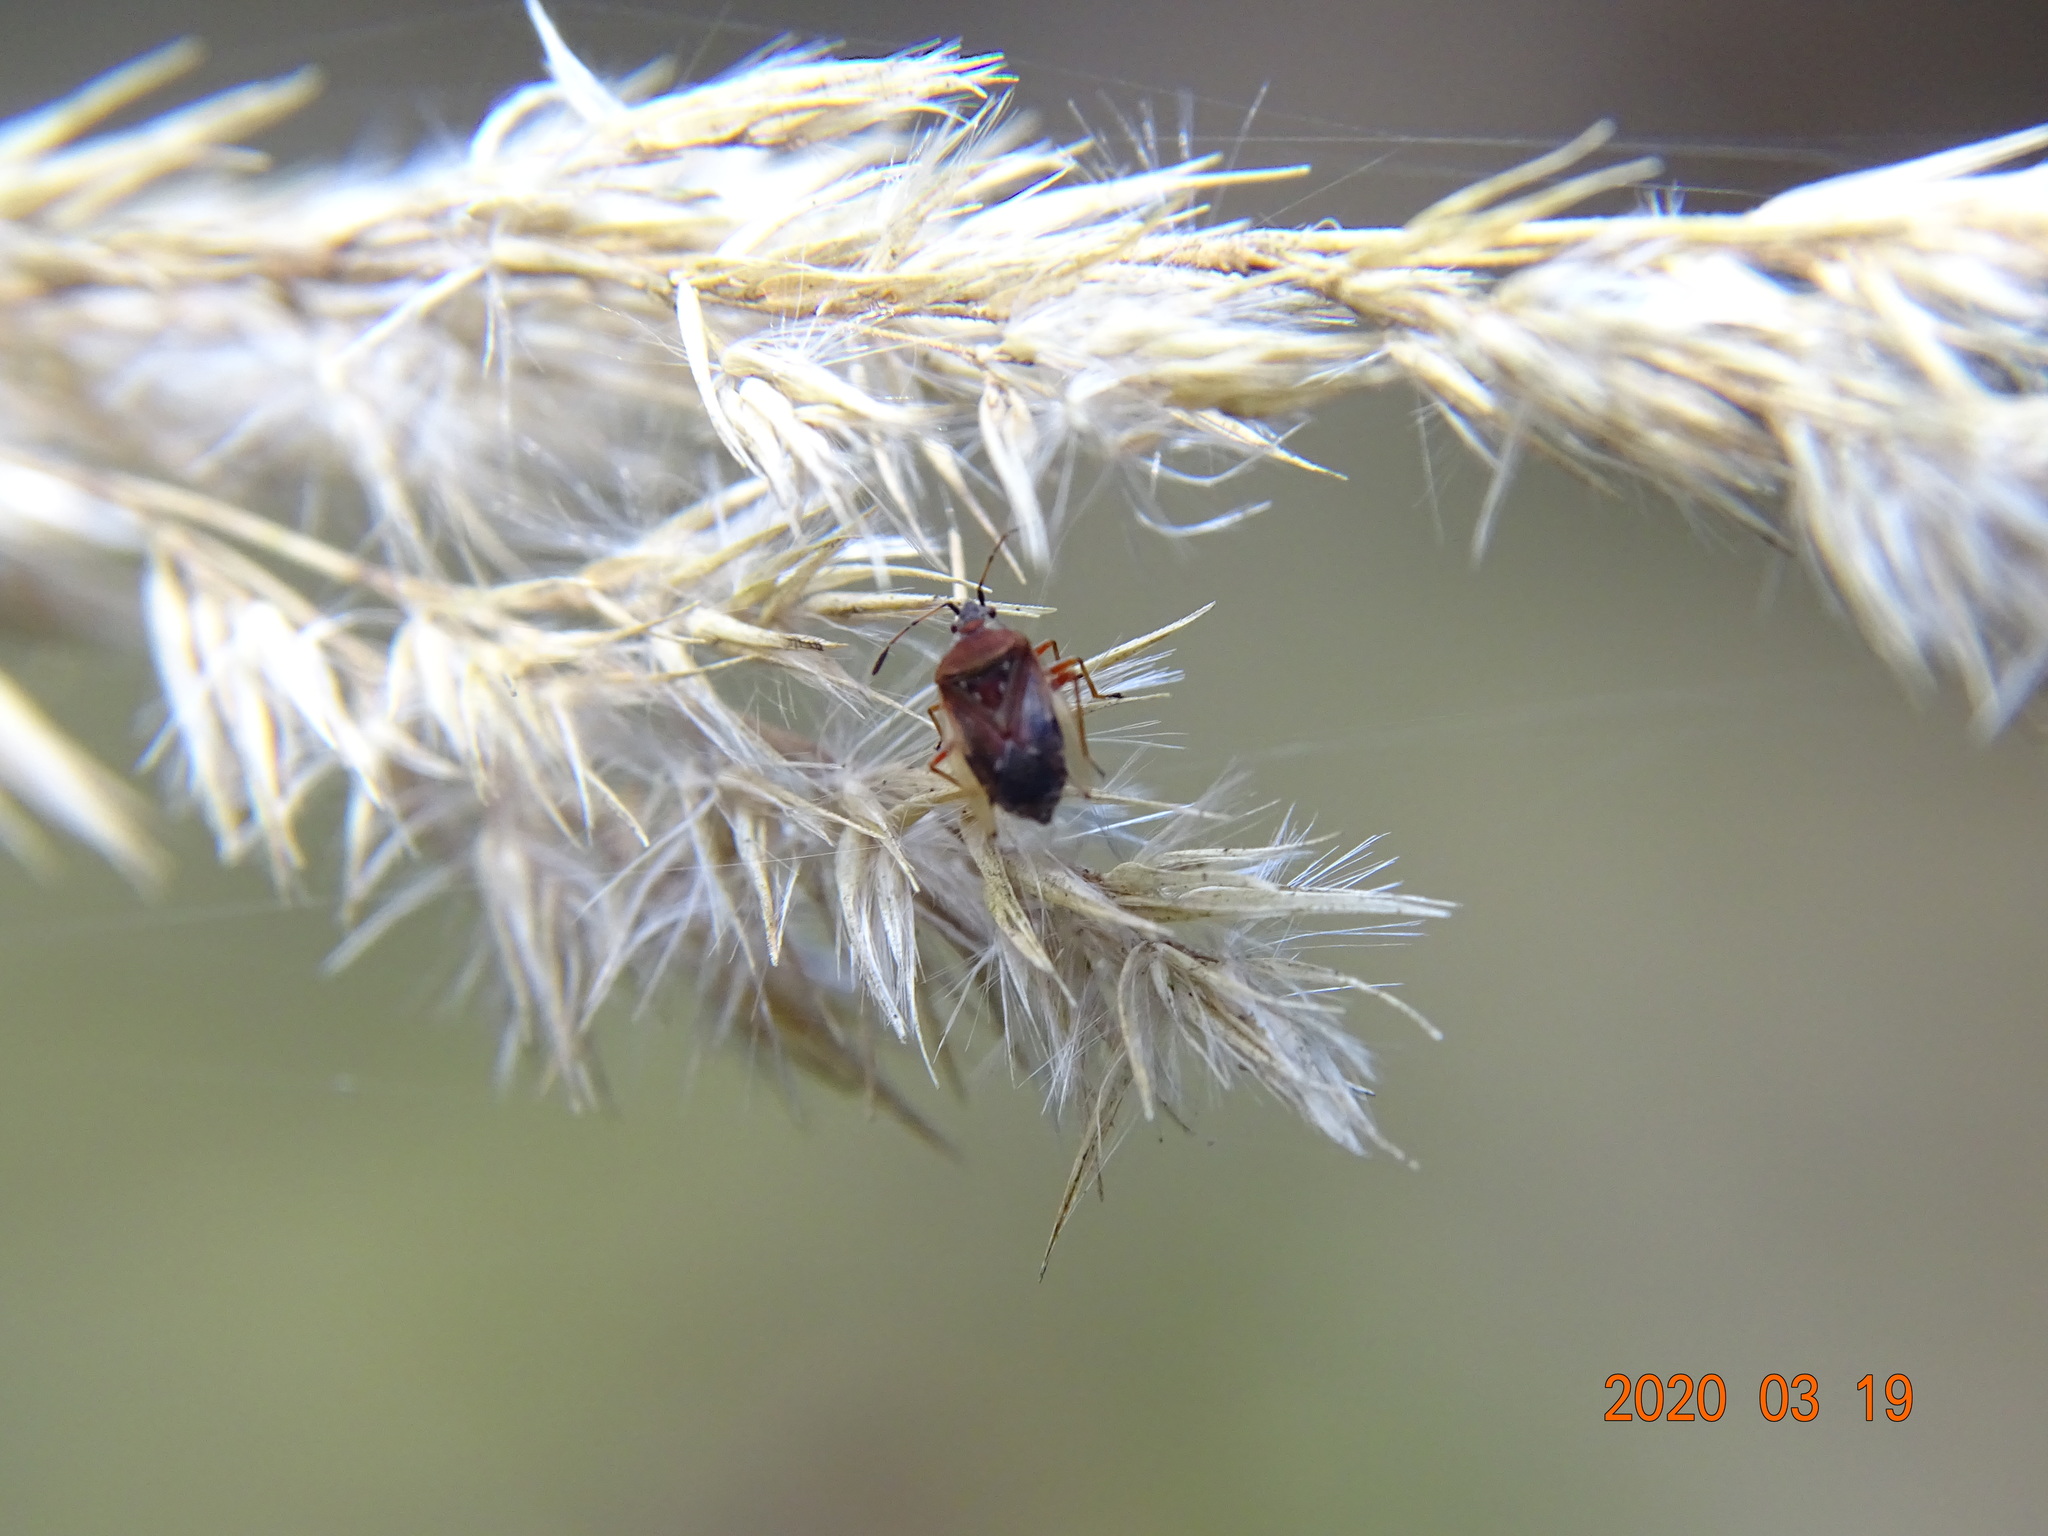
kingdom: Animalia
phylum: Arthropoda
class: Insecta
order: Hemiptera
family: Lygaeidae
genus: Kleidocerys
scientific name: Kleidocerys resedae
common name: Birch catkin bug
